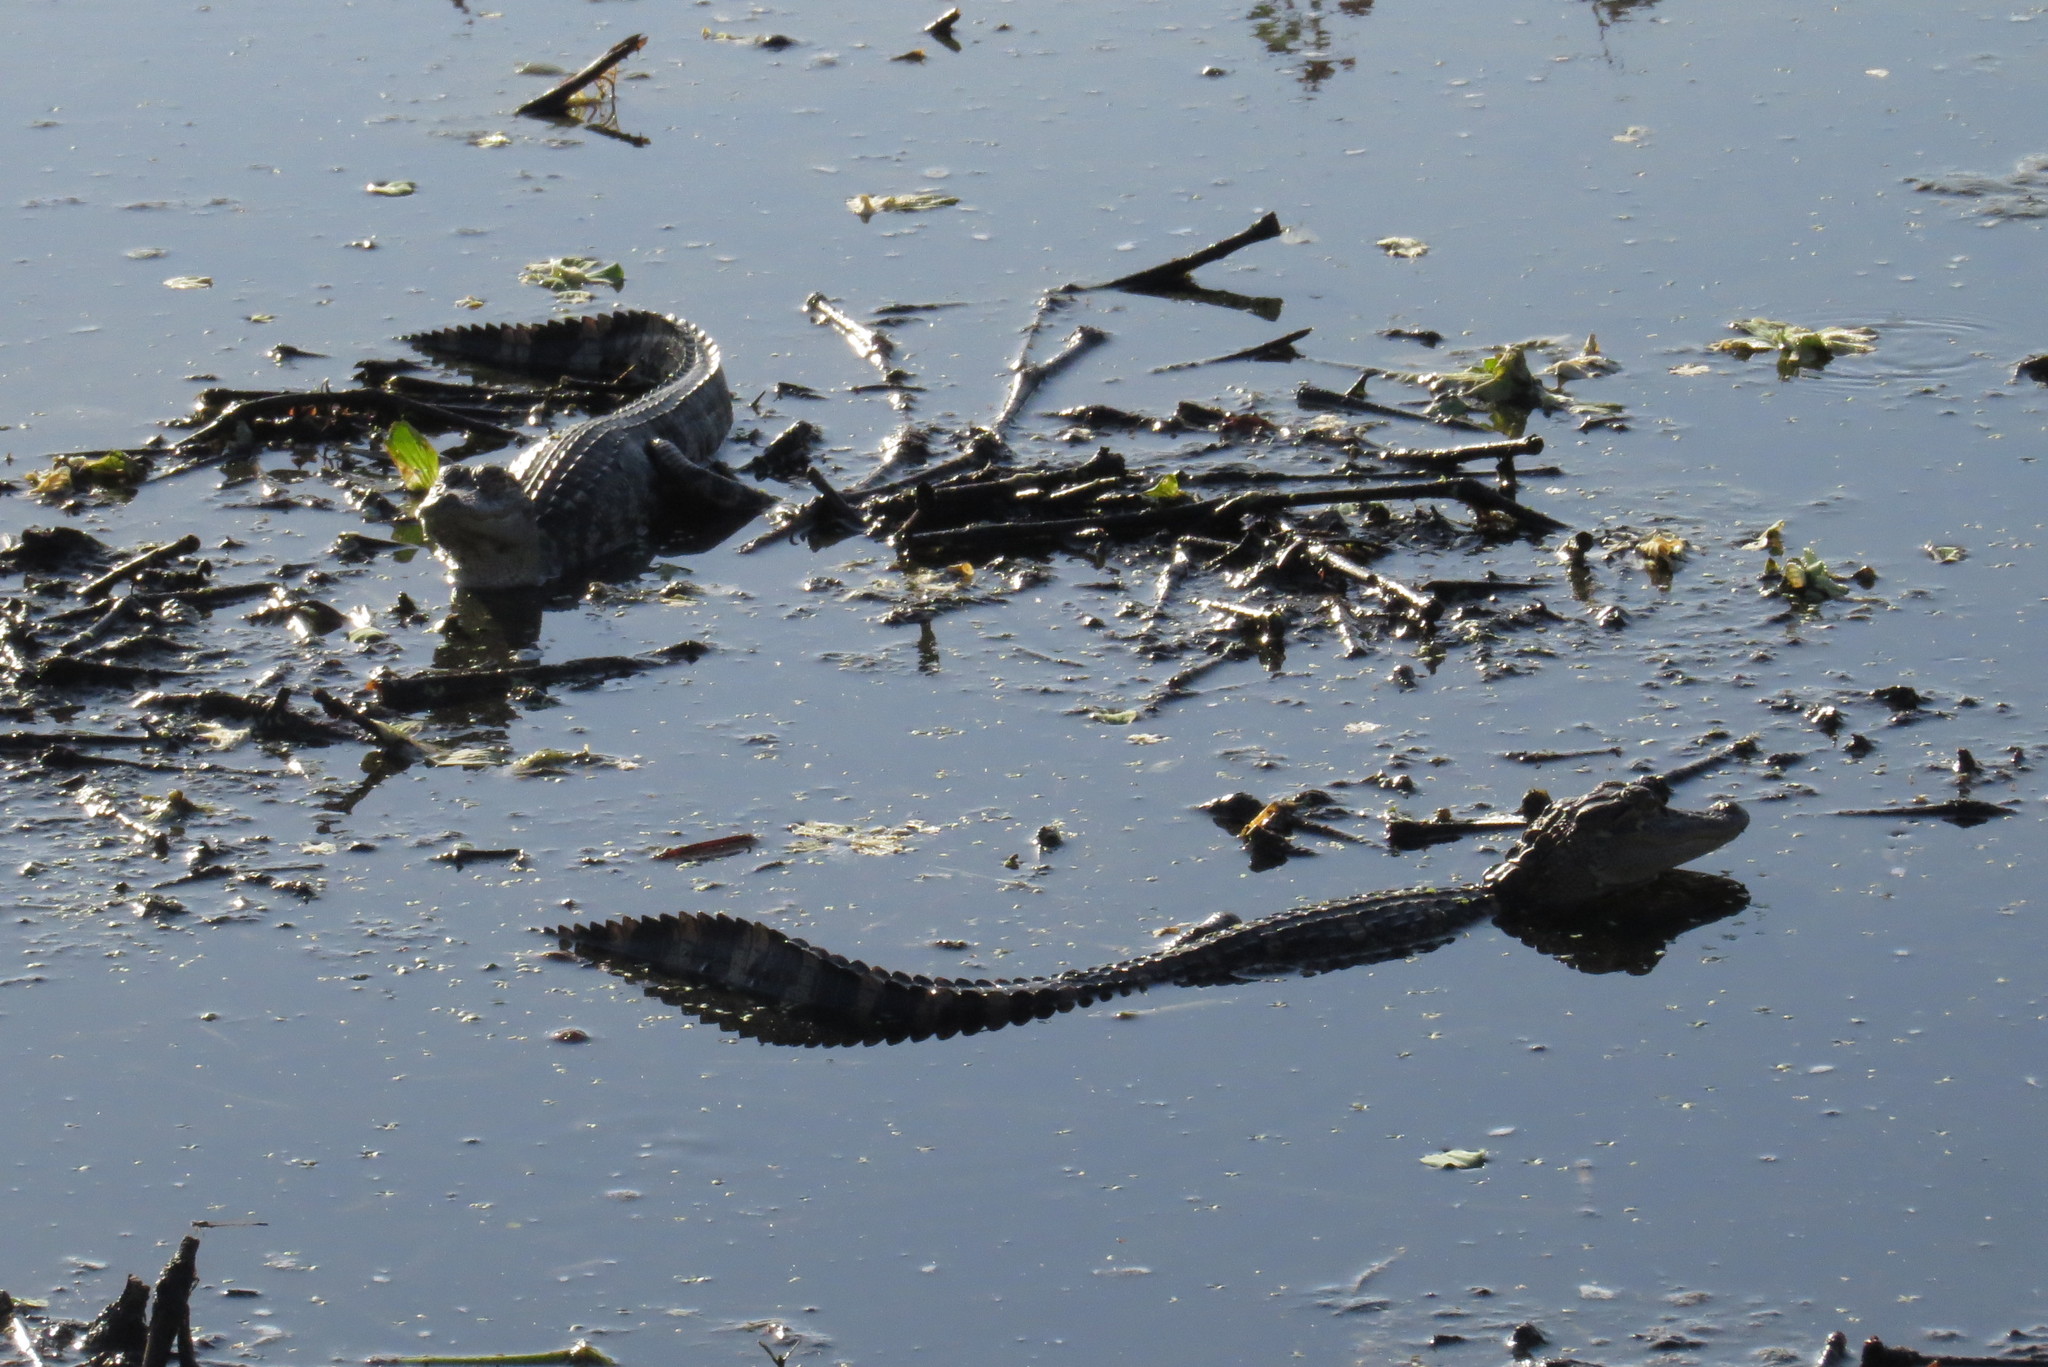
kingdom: Animalia
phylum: Chordata
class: Crocodylia
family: Alligatoridae
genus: Alligator
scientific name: Alligator mississippiensis
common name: American alligator
